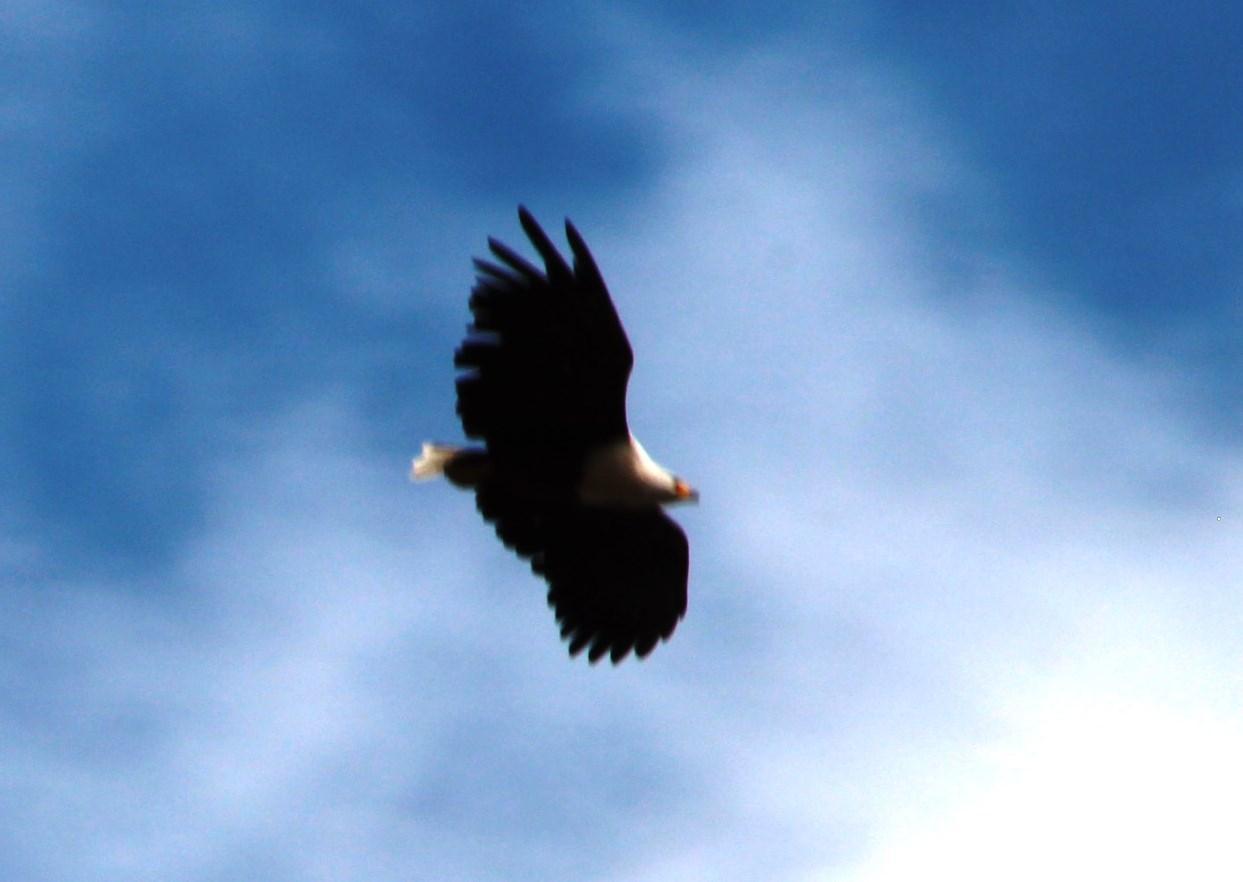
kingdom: Animalia
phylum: Chordata
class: Aves
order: Accipitriformes
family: Accipitridae
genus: Haliaeetus
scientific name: Haliaeetus vocifer
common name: African fish eagle
